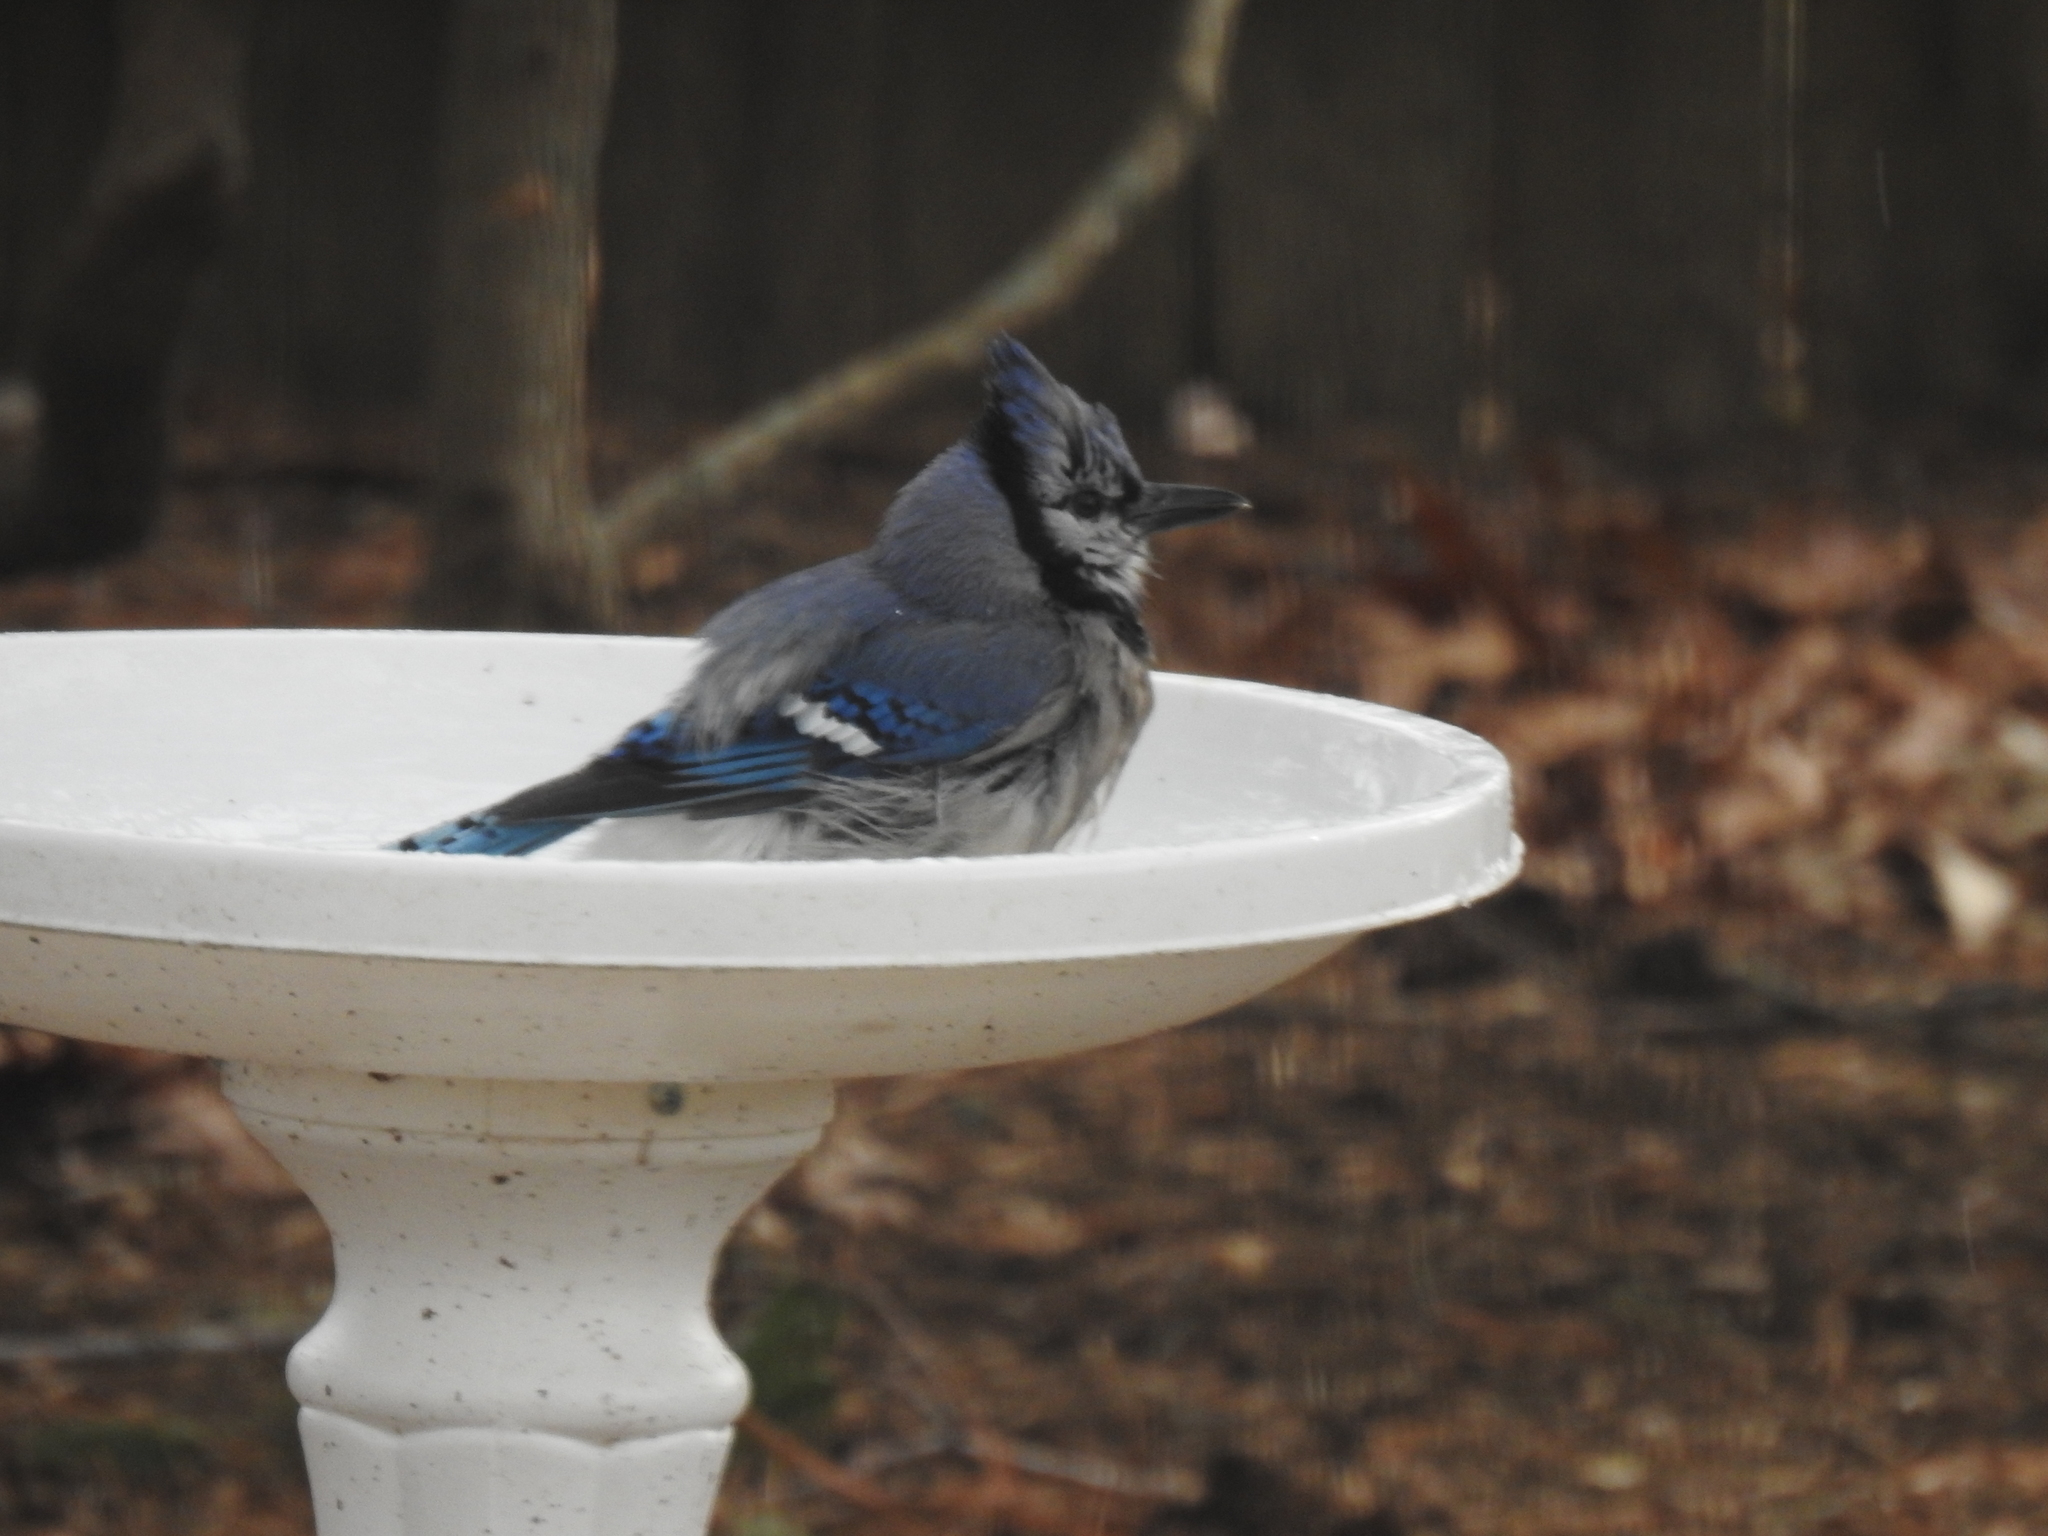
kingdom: Animalia
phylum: Chordata
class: Aves
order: Passeriformes
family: Corvidae
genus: Cyanocitta
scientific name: Cyanocitta cristata
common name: Blue jay
